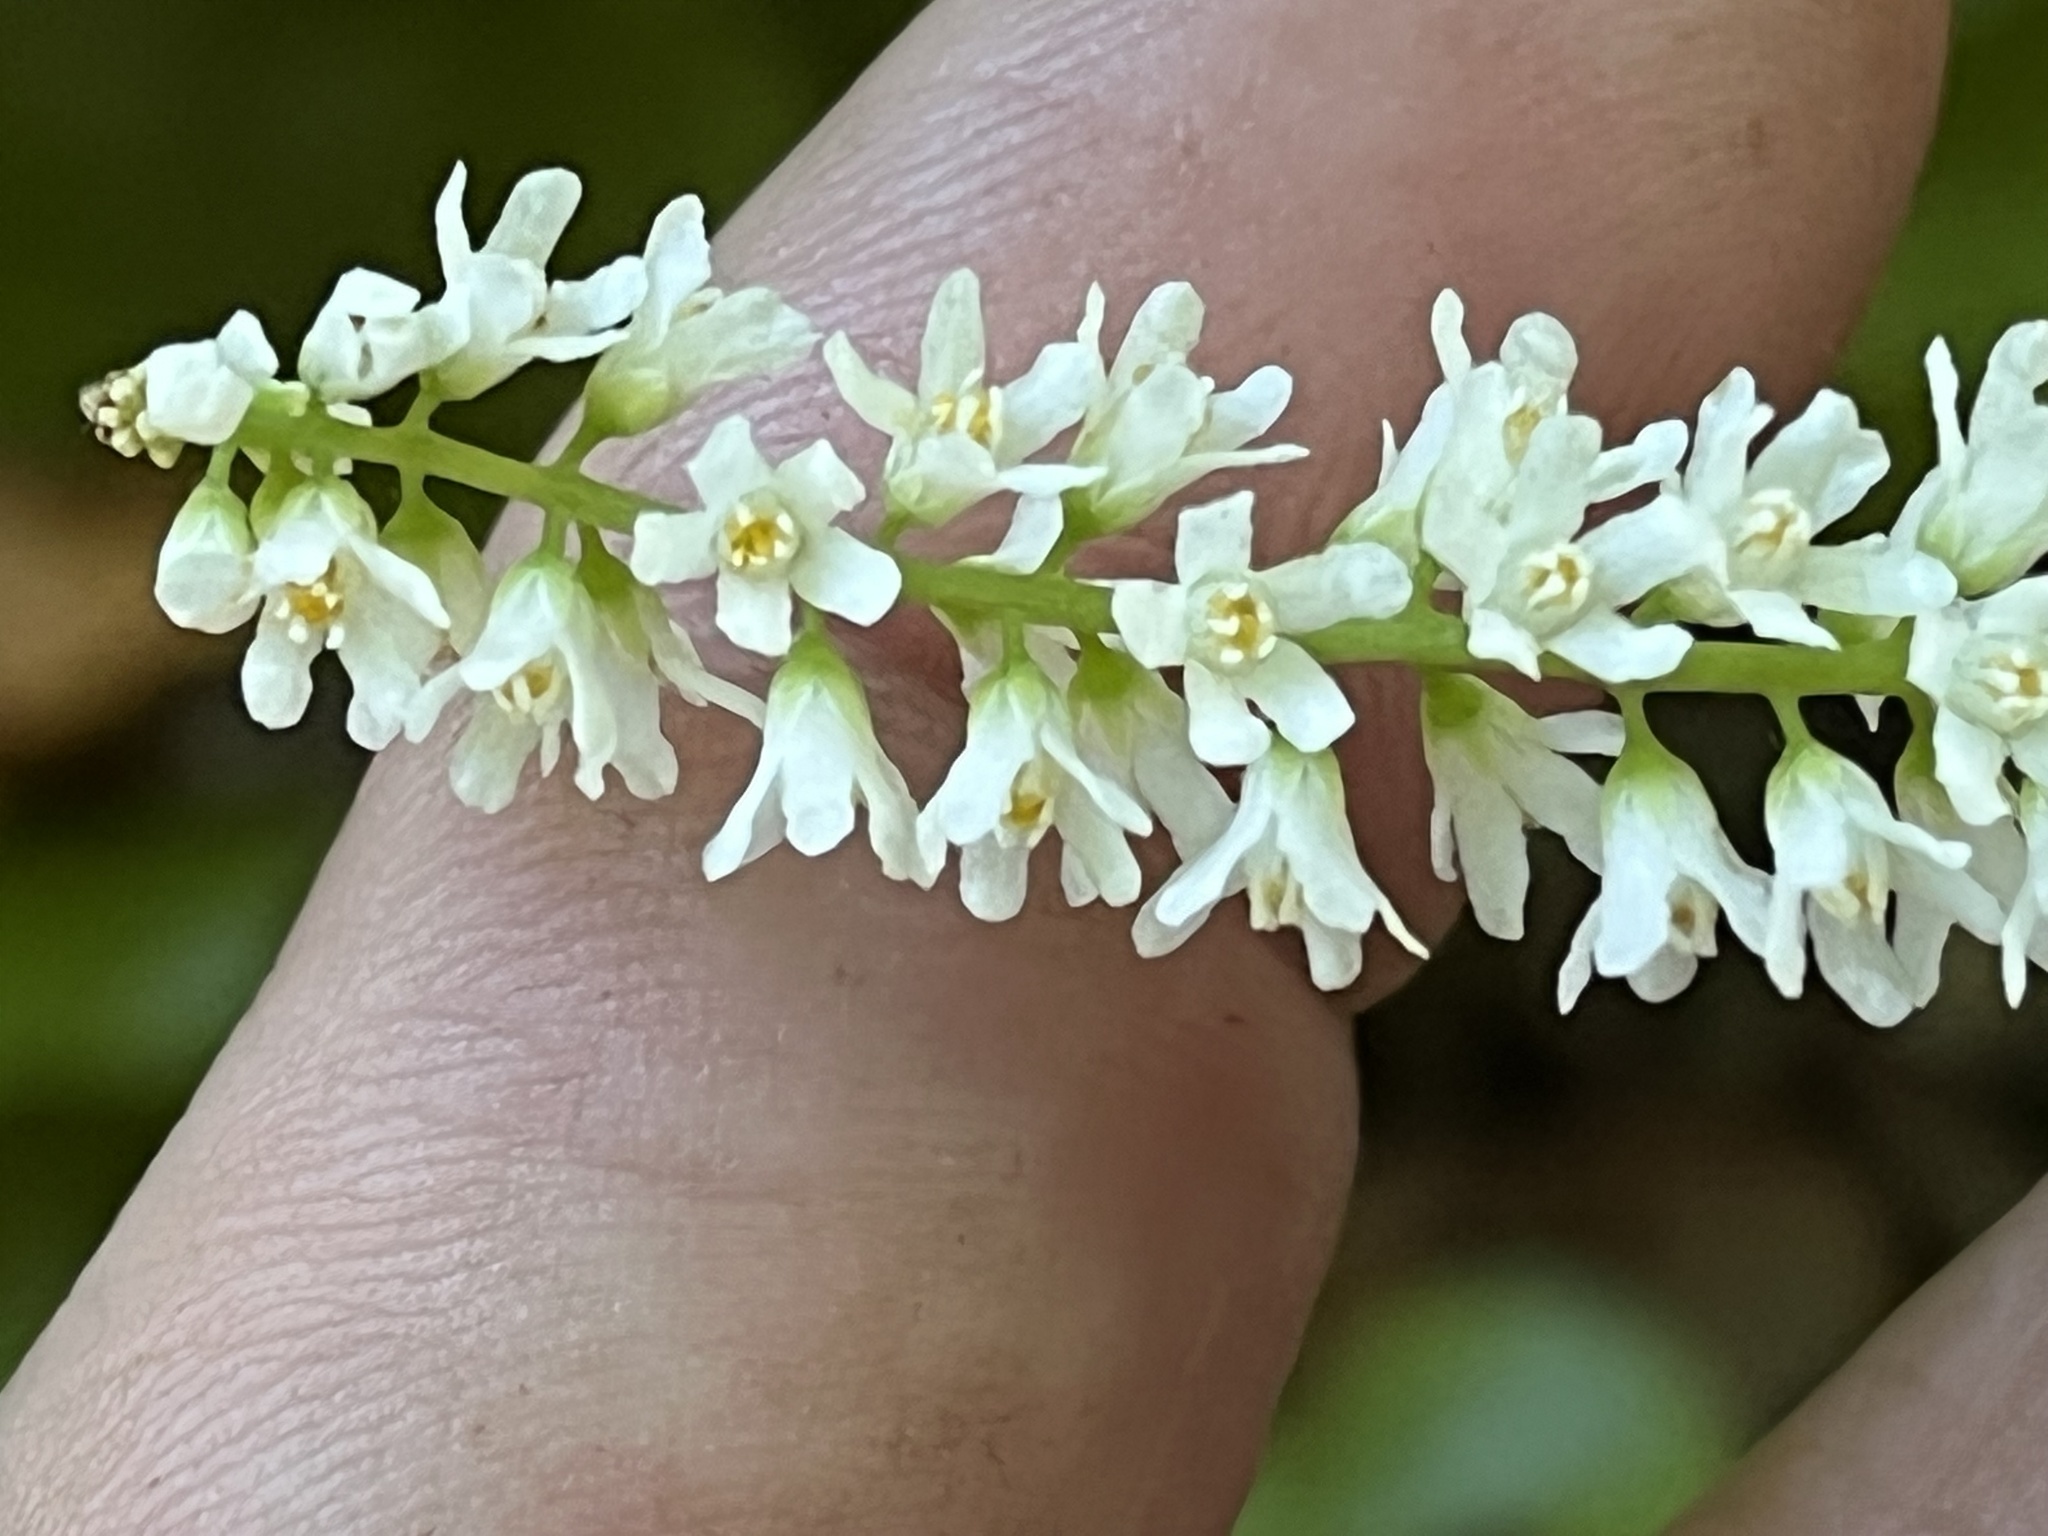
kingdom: Plantae
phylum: Tracheophyta
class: Magnoliopsida
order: Ericales
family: Diapensiaceae
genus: Galax
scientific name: Galax urceolata
